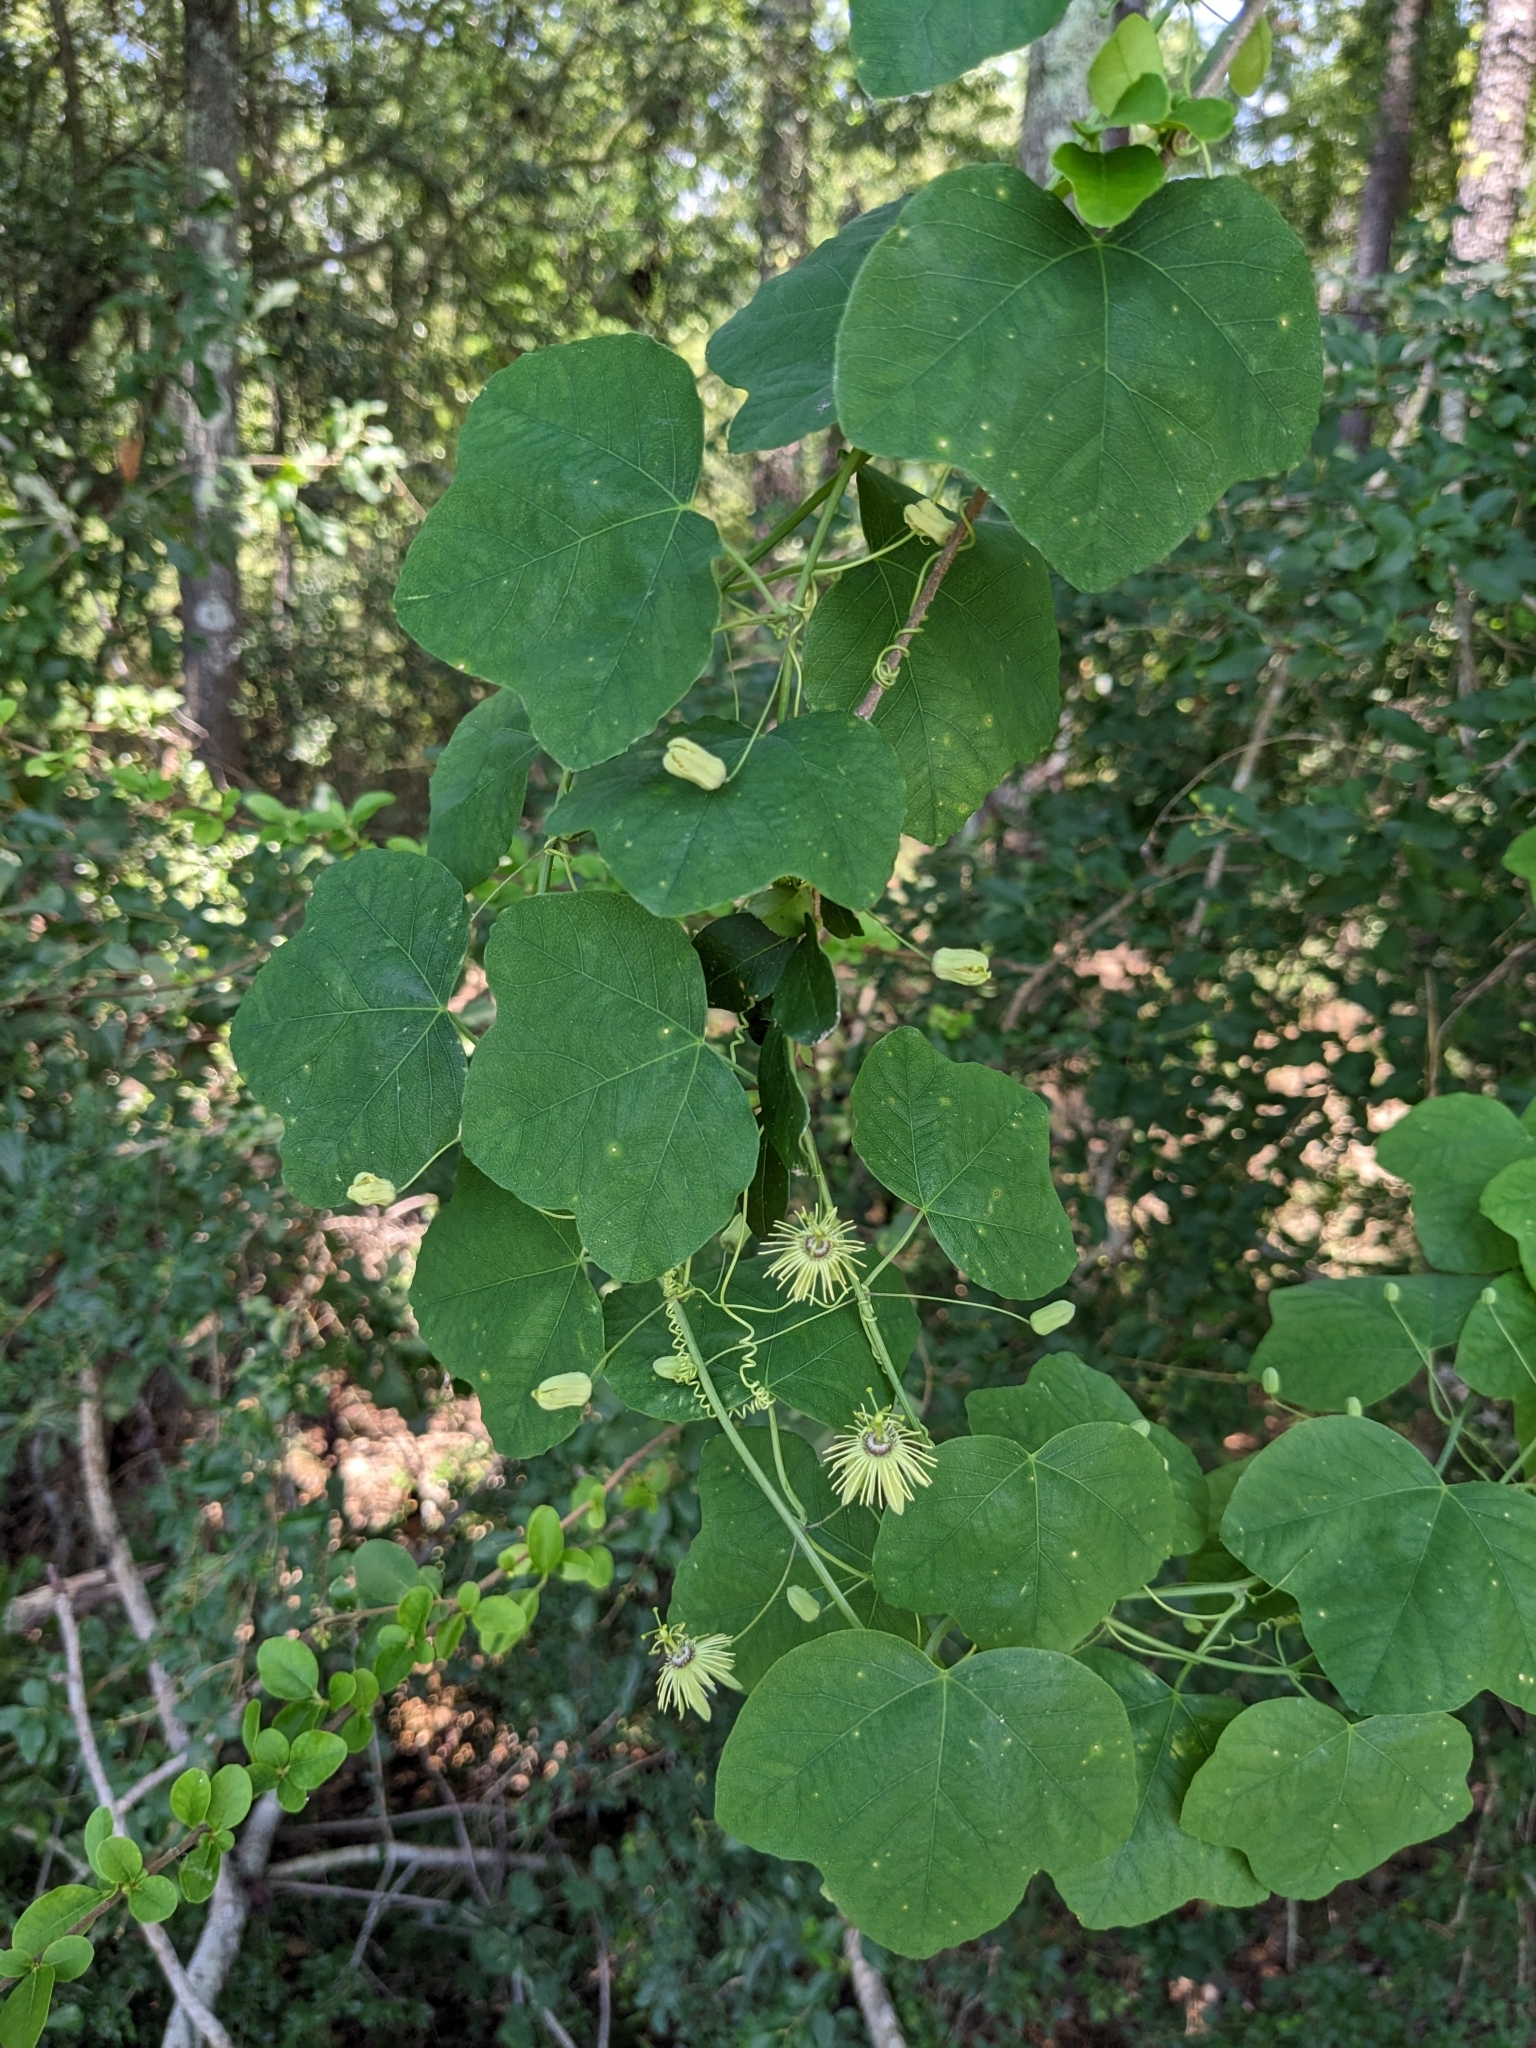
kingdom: Plantae
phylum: Tracheophyta
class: Magnoliopsida
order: Malpighiales
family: Passifloraceae
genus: Passiflora
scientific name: Passiflora lutea
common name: Yellow passionflower
